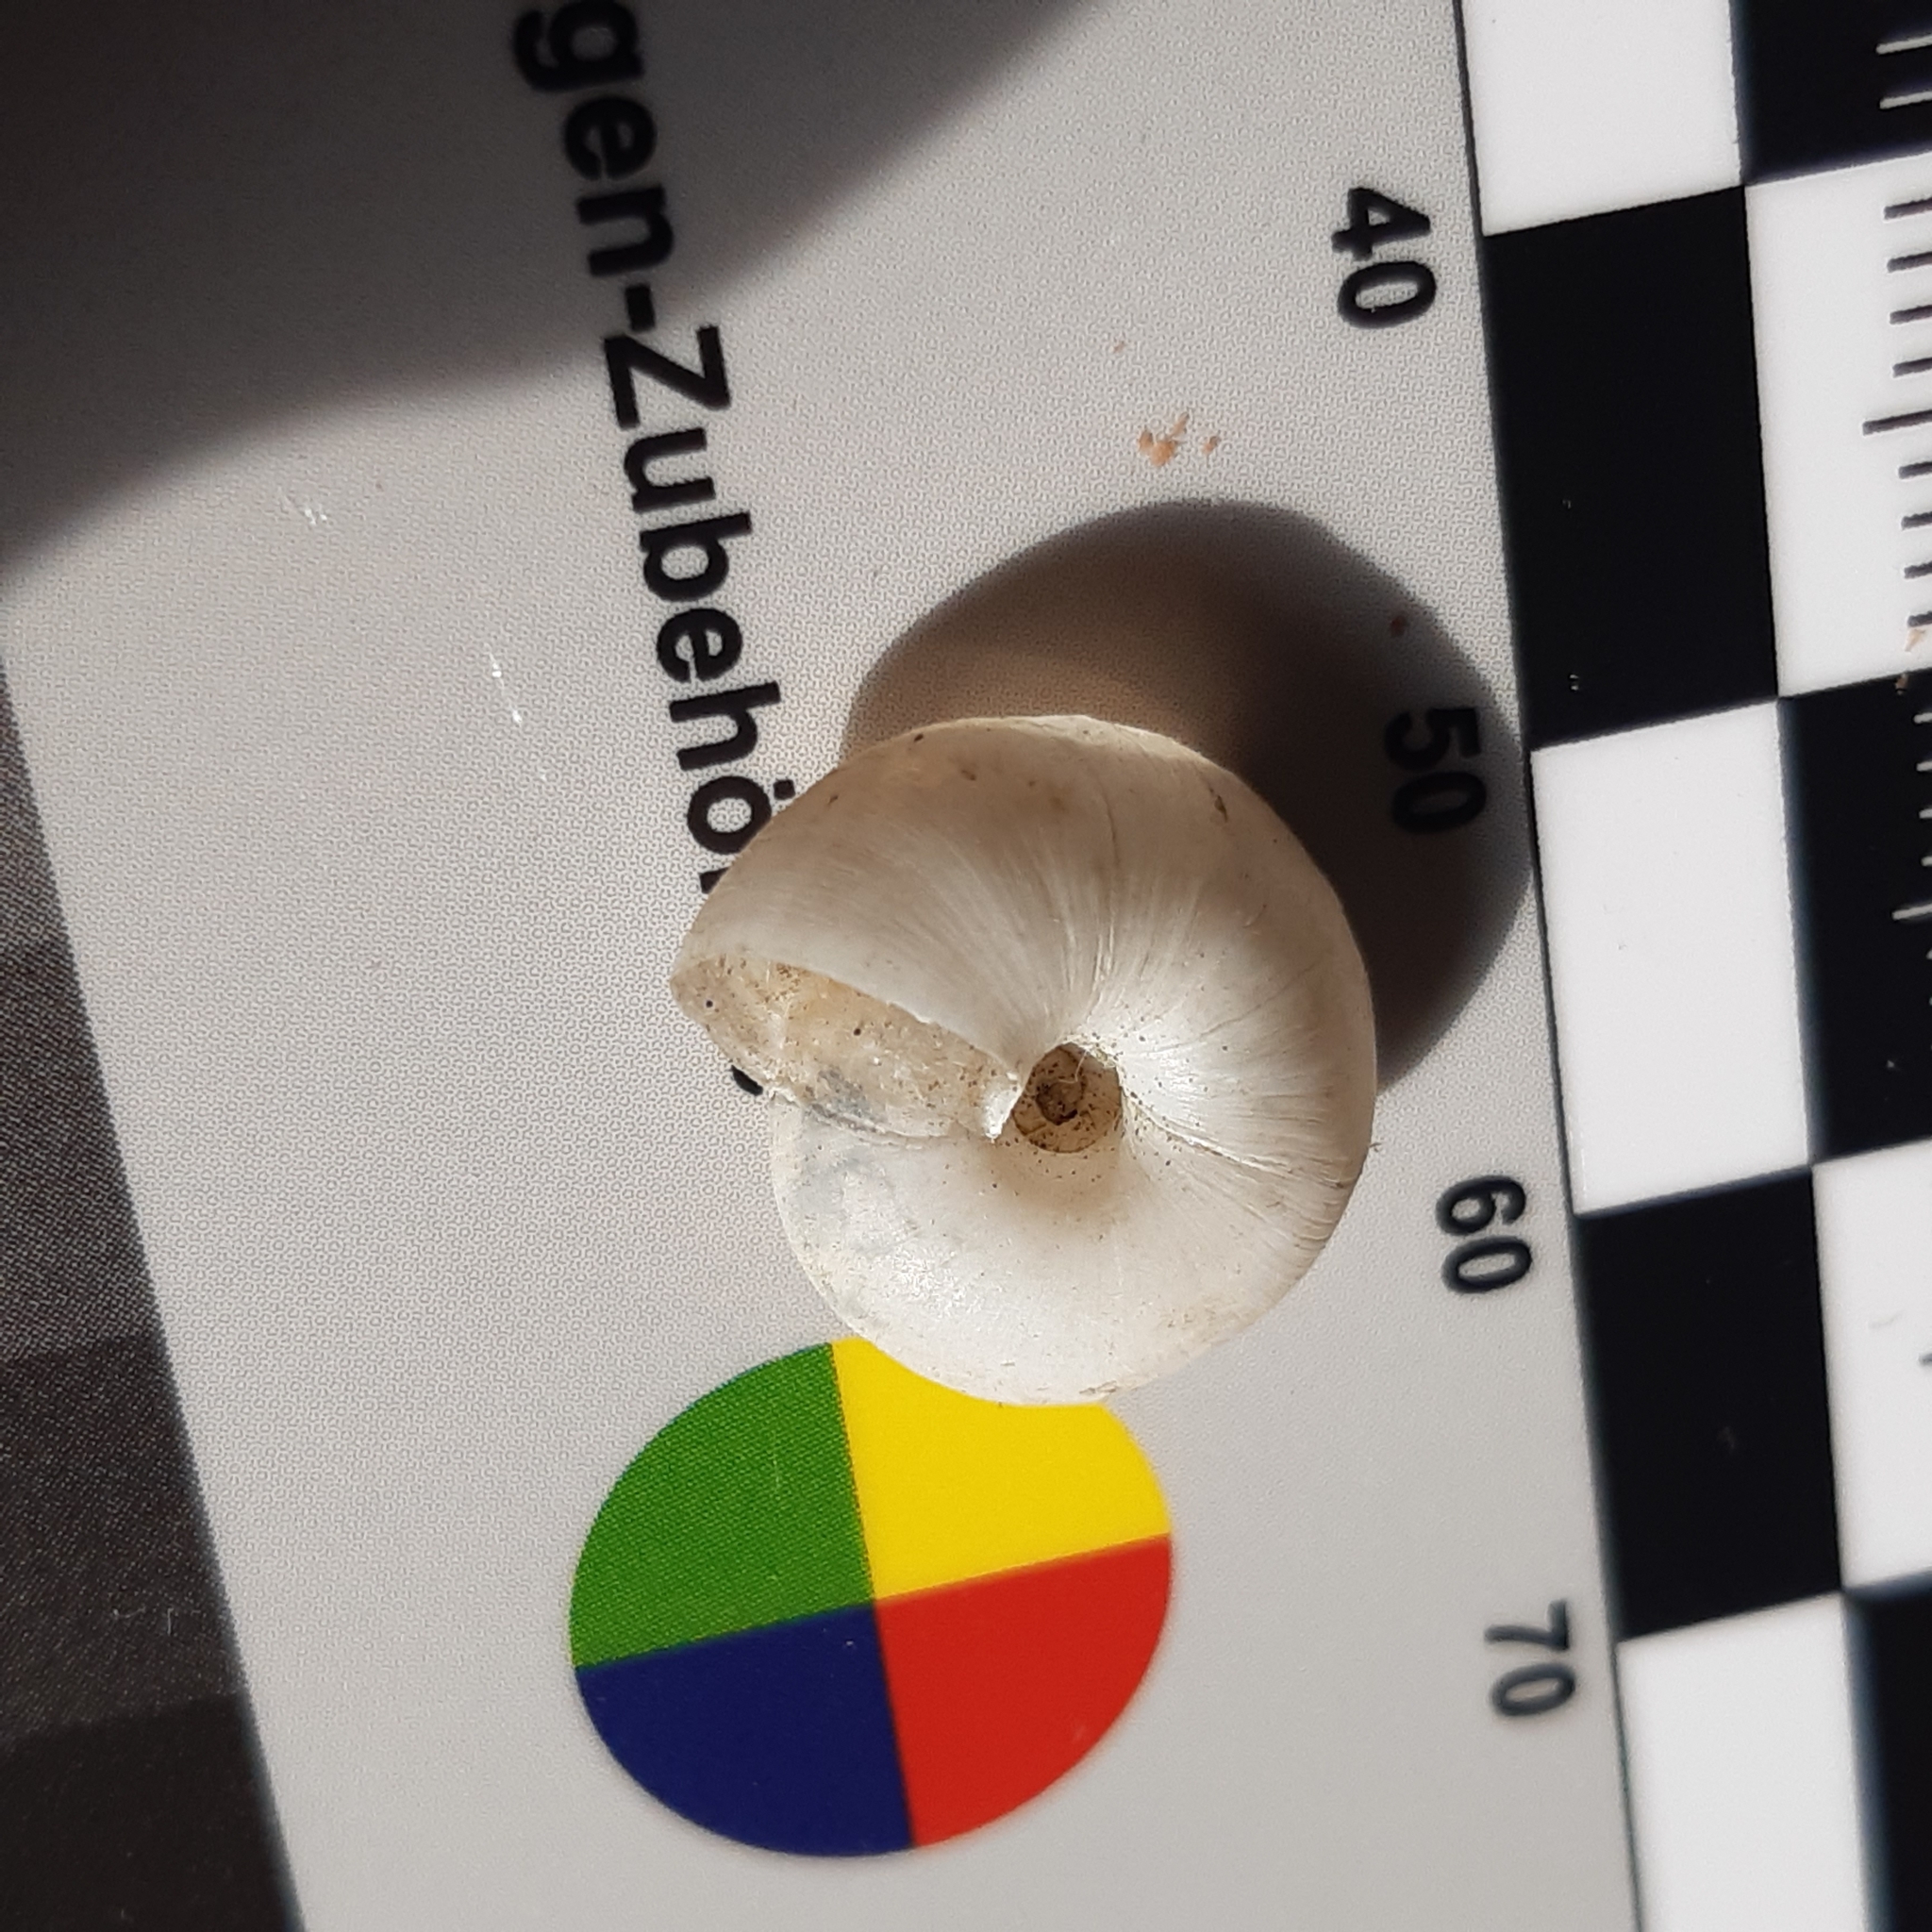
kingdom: Animalia
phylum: Mollusca
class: Gastropoda
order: Stylommatophora
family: Zonitidae
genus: Zonites
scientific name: Zonites algirus
